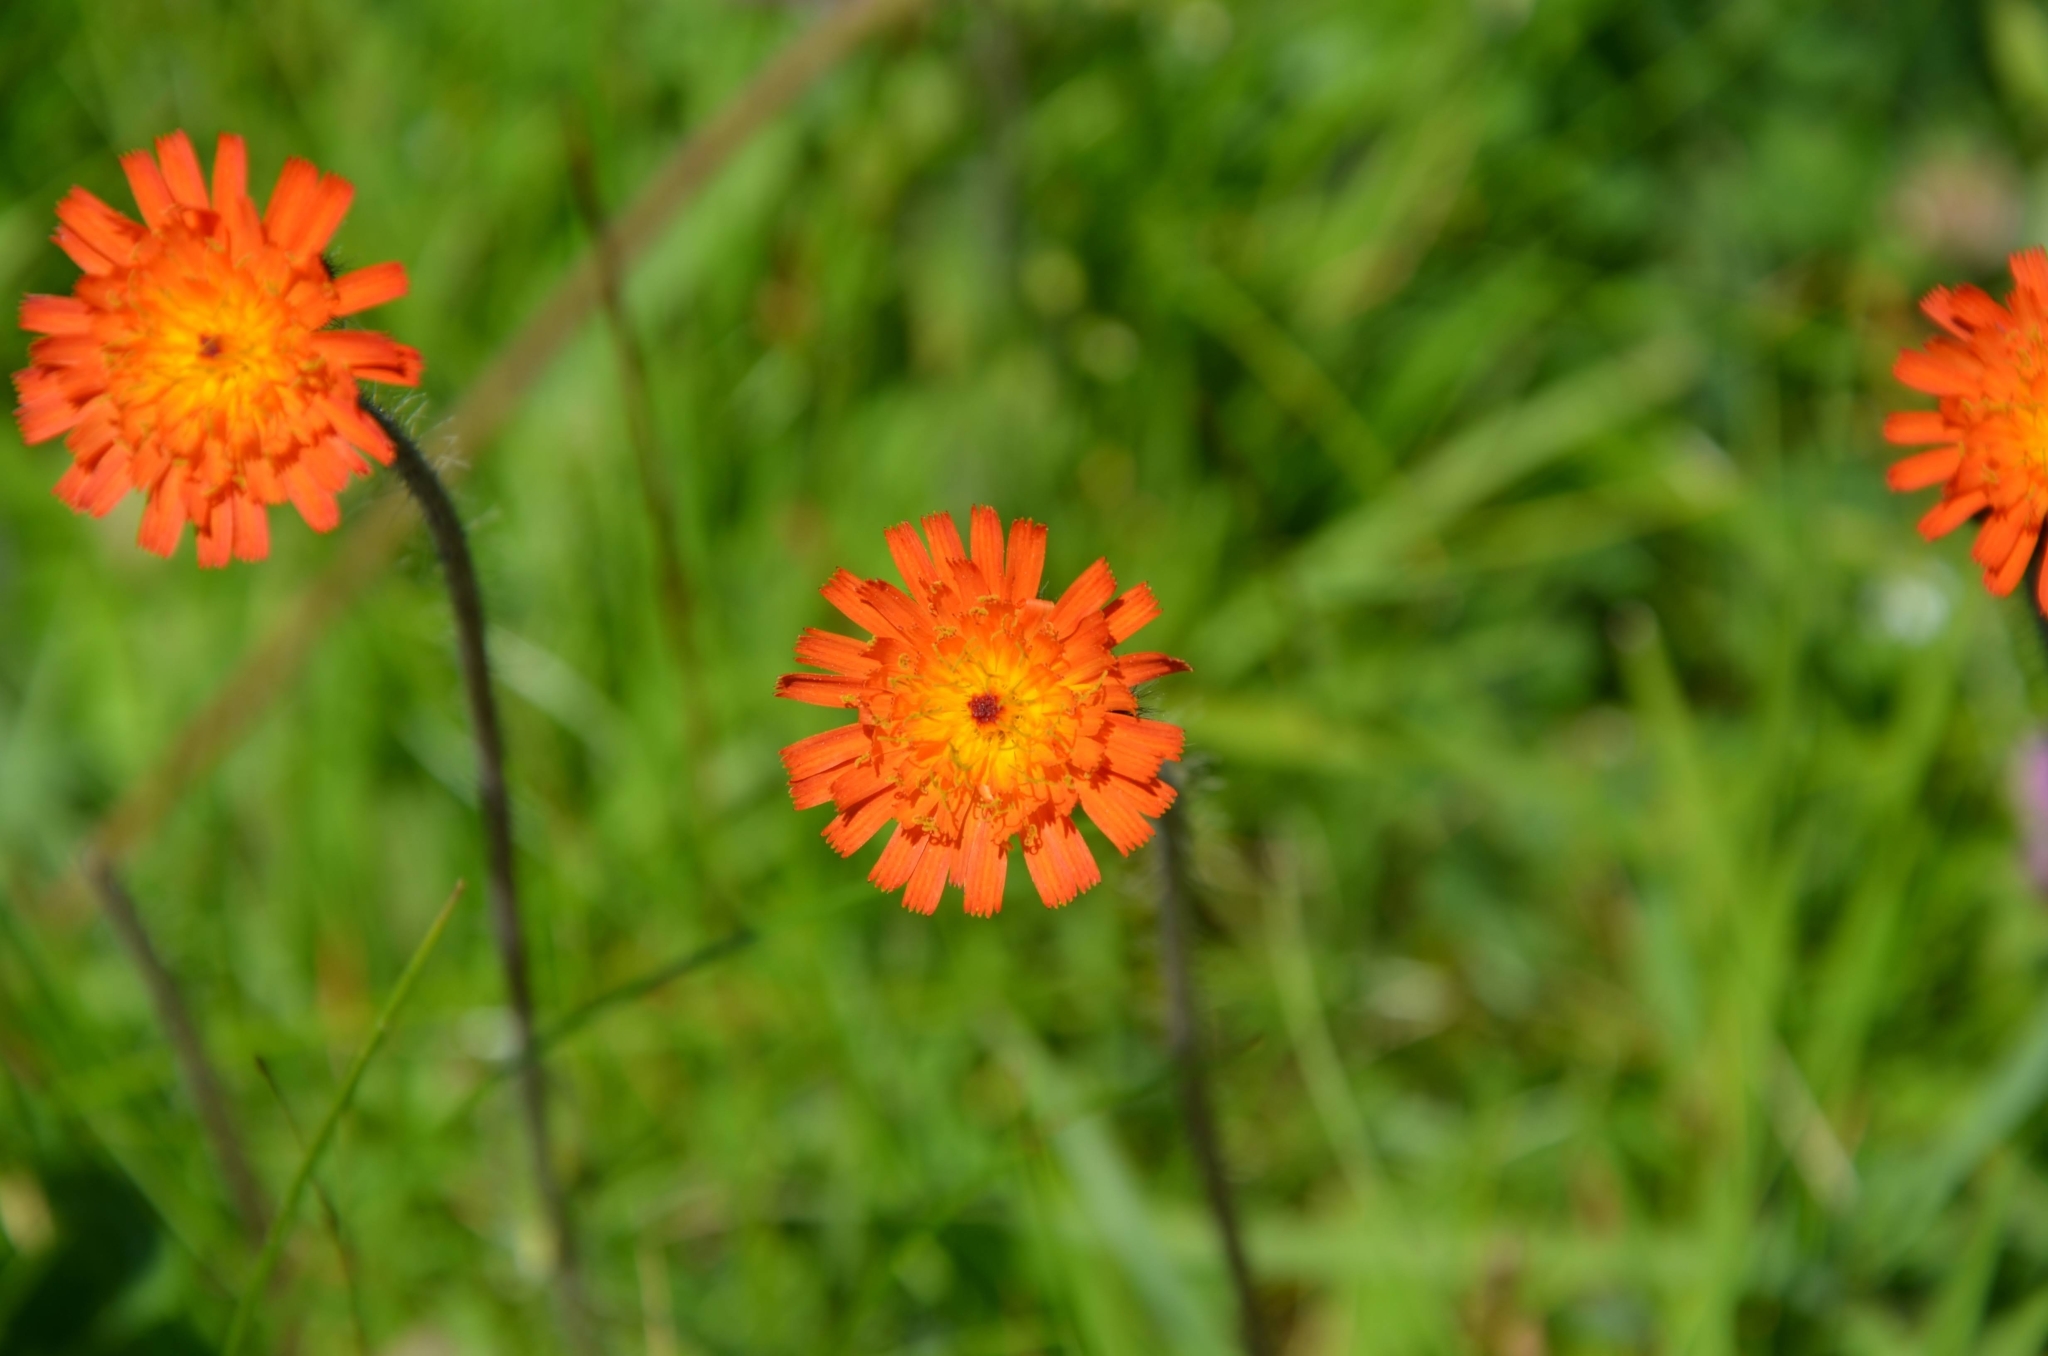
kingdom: Plantae
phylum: Tracheophyta
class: Magnoliopsida
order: Asterales
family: Asteraceae
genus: Pilosella
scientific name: Pilosella aurantiaca
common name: Fox-and-cubs
